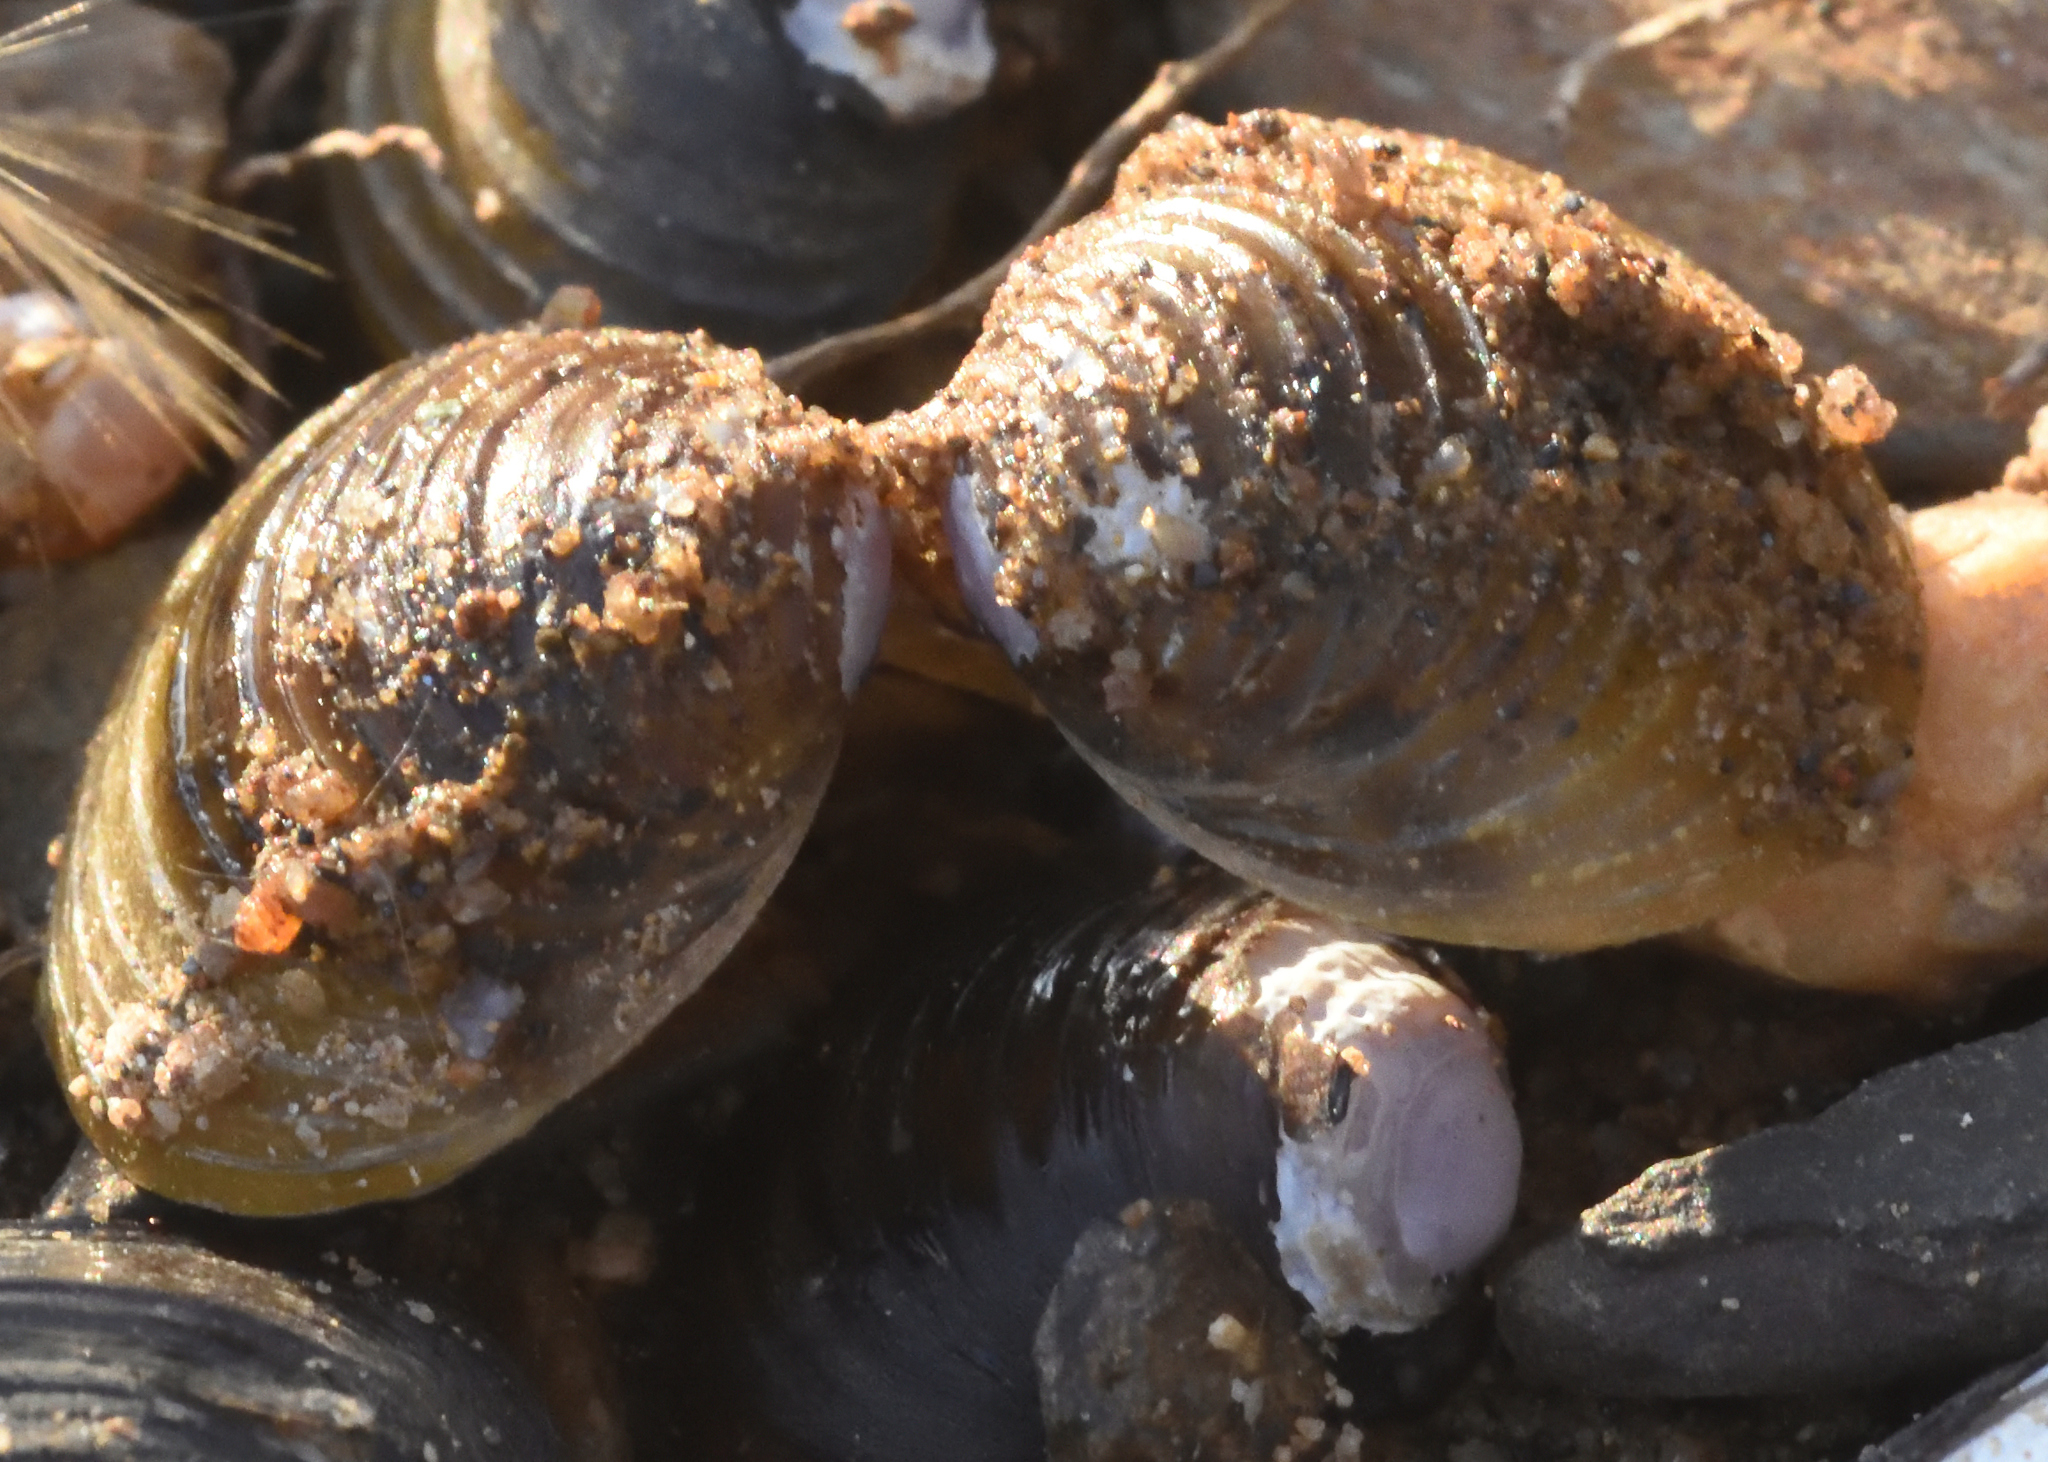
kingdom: Animalia
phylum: Mollusca
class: Bivalvia
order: Venerida
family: Cyrenidae
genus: Corbicula
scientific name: Corbicula fluminea
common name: Asian clam
